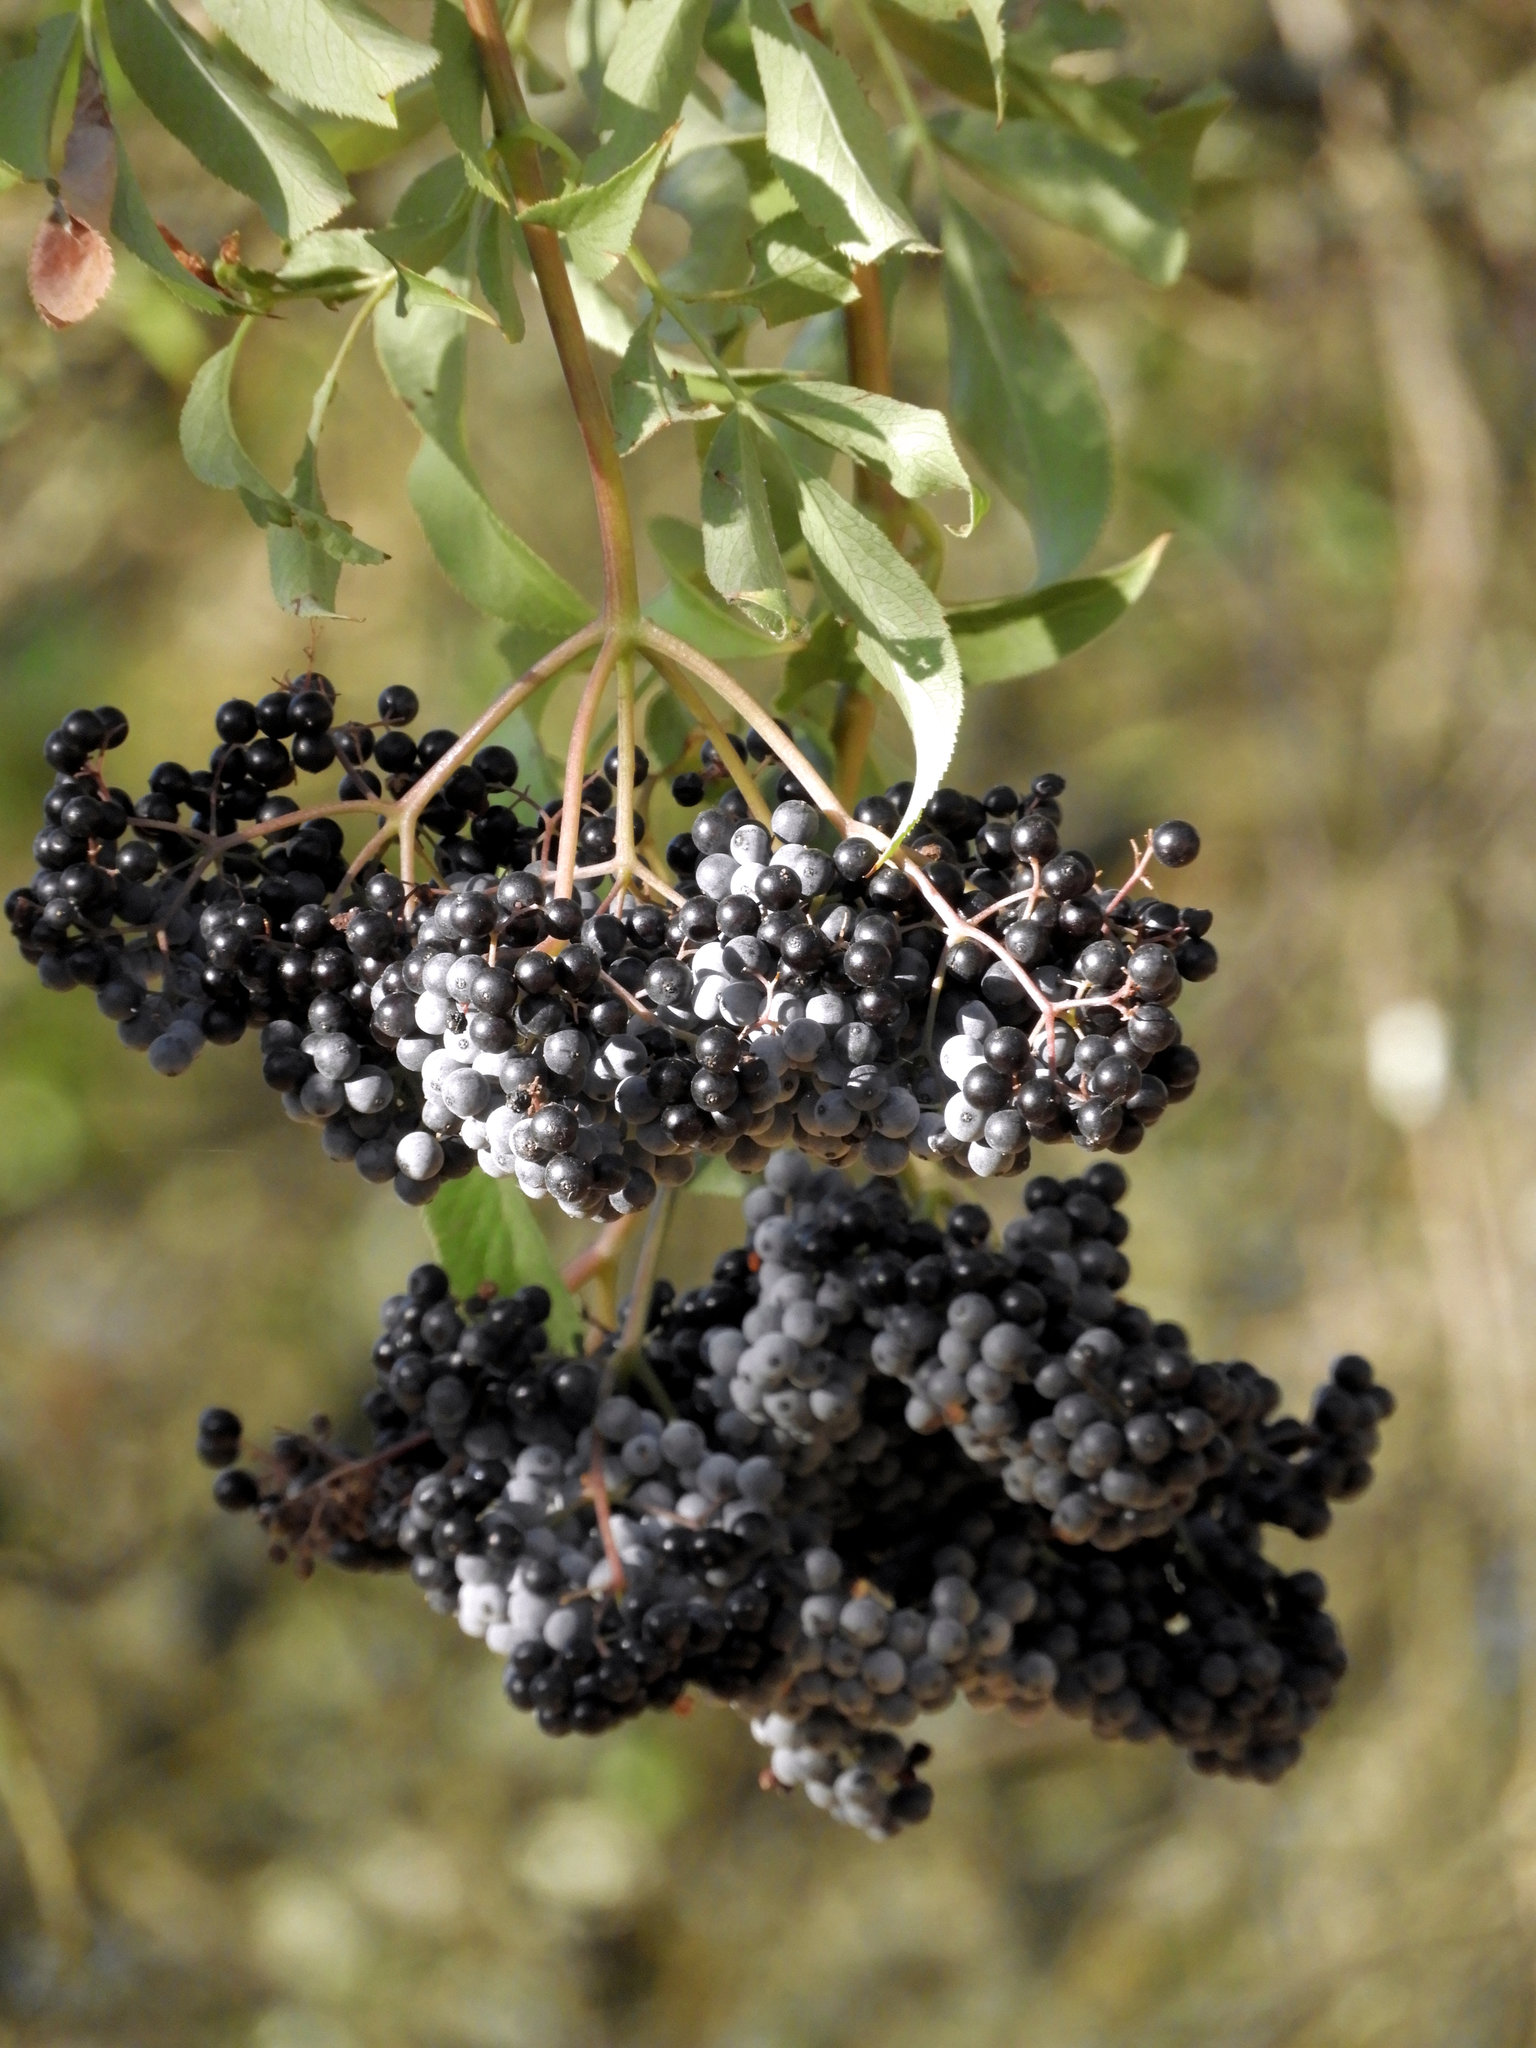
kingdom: Plantae
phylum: Tracheophyta
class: Magnoliopsida
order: Dipsacales
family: Viburnaceae
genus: Sambucus
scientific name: Sambucus cerulea
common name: Blue elder
